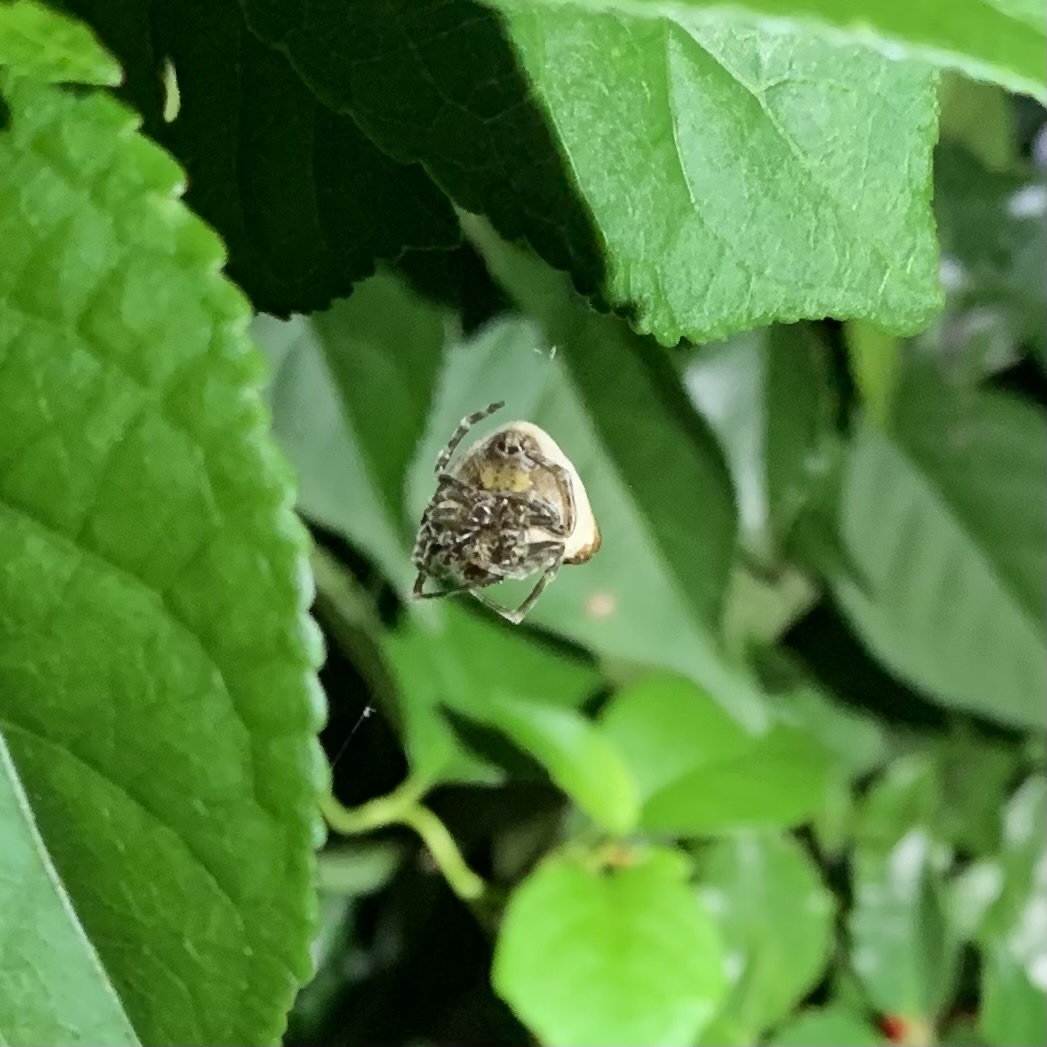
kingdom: Animalia
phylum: Arthropoda
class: Arachnida
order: Araneae
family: Araneidae
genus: Mastophora
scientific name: Mastophora phrynosoma
